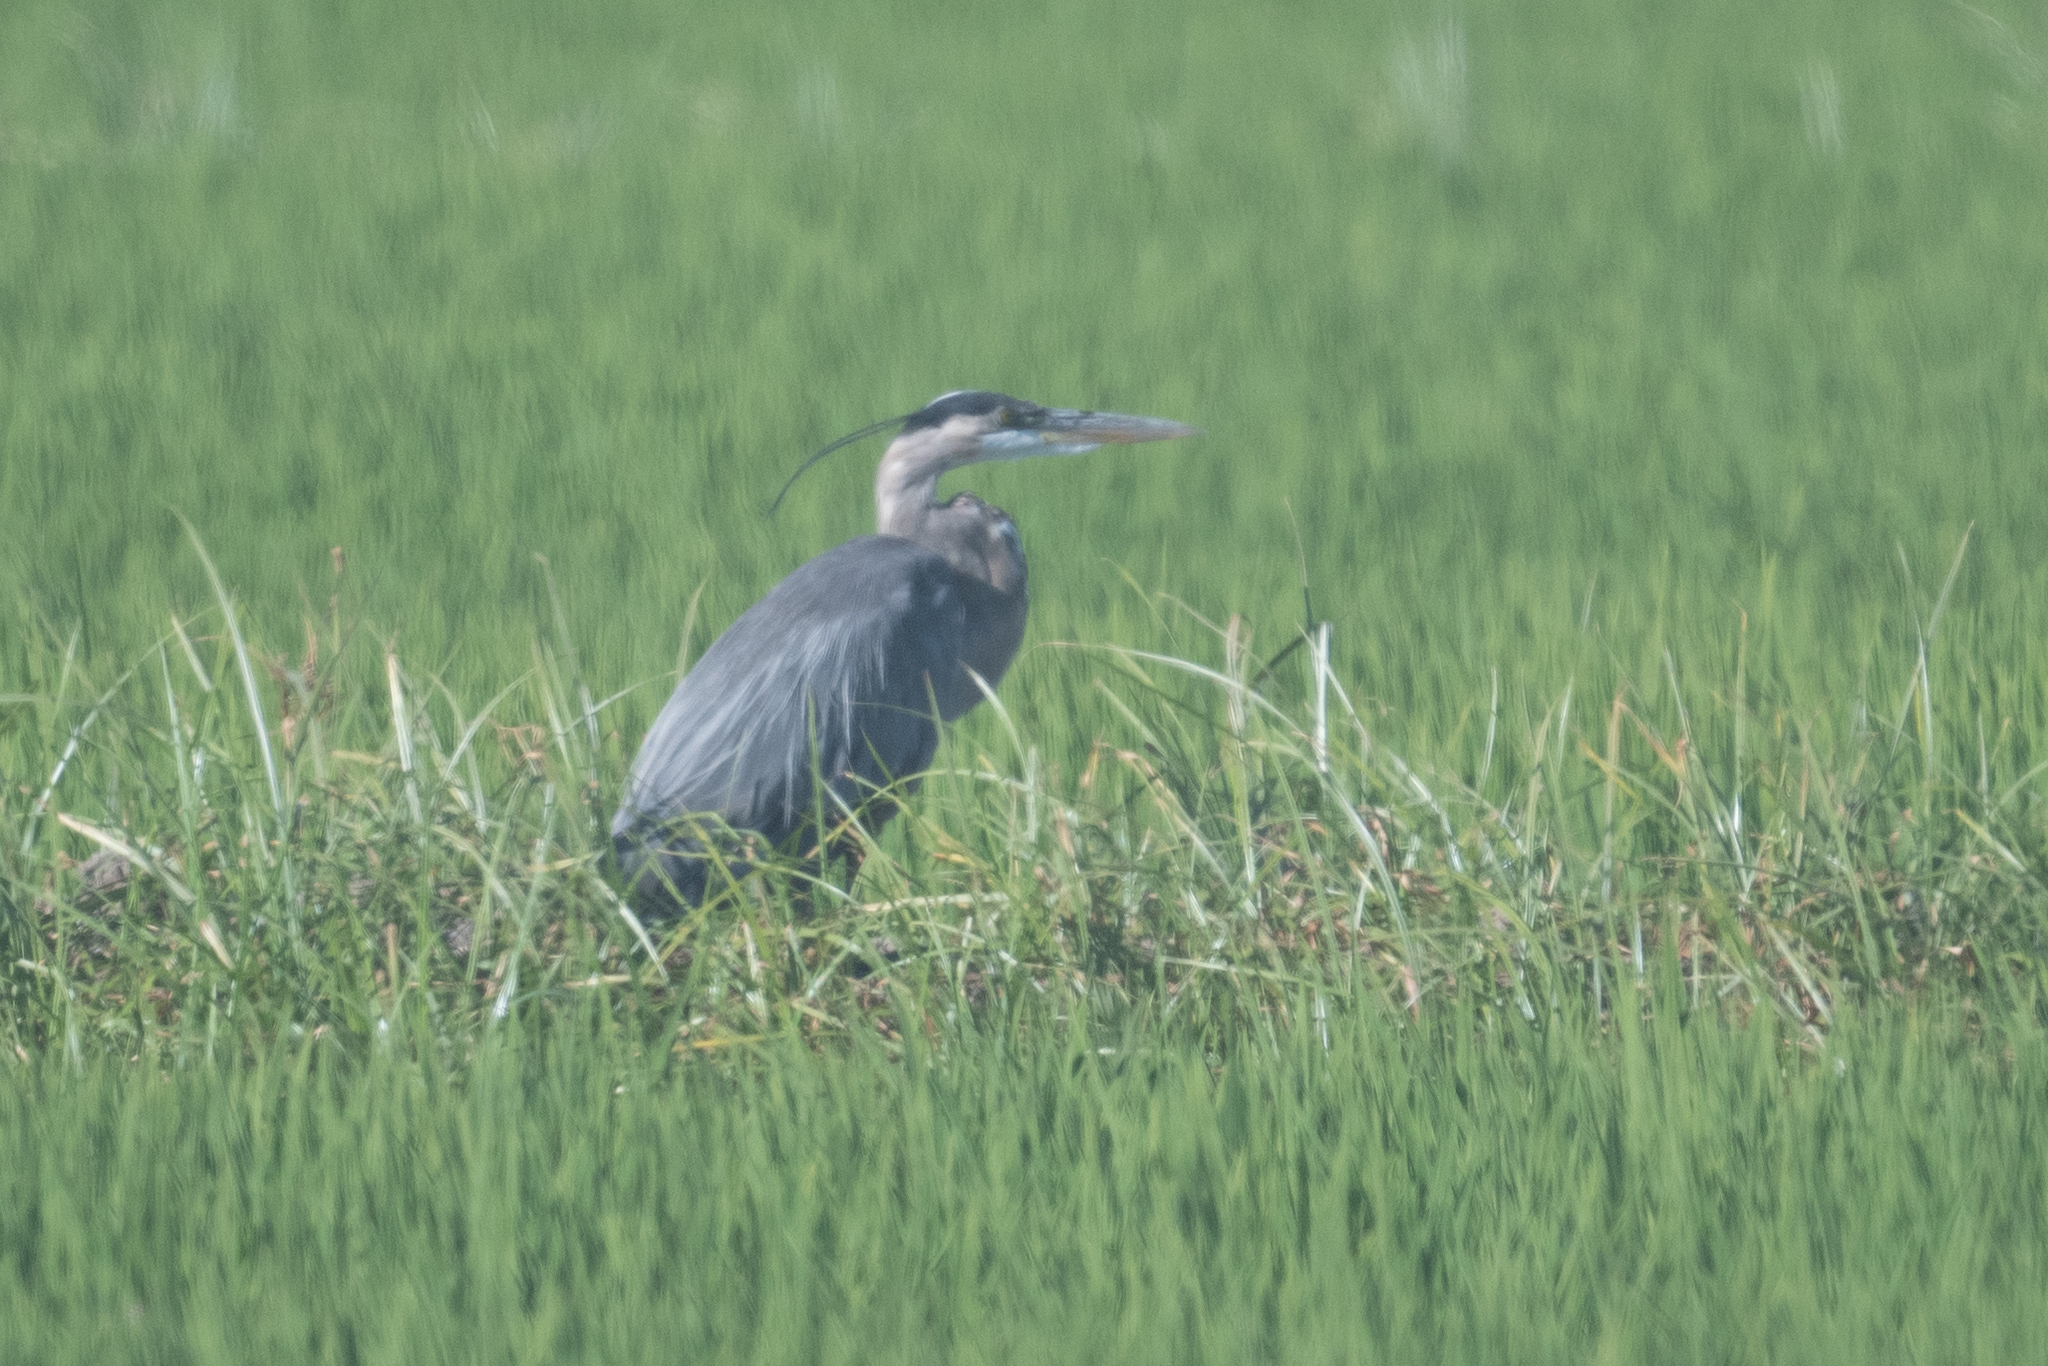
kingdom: Animalia
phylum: Chordata
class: Aves
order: Pelecaniformes
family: Ardeidae
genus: Ardea
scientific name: Ardea herodias
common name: Great blue heron
